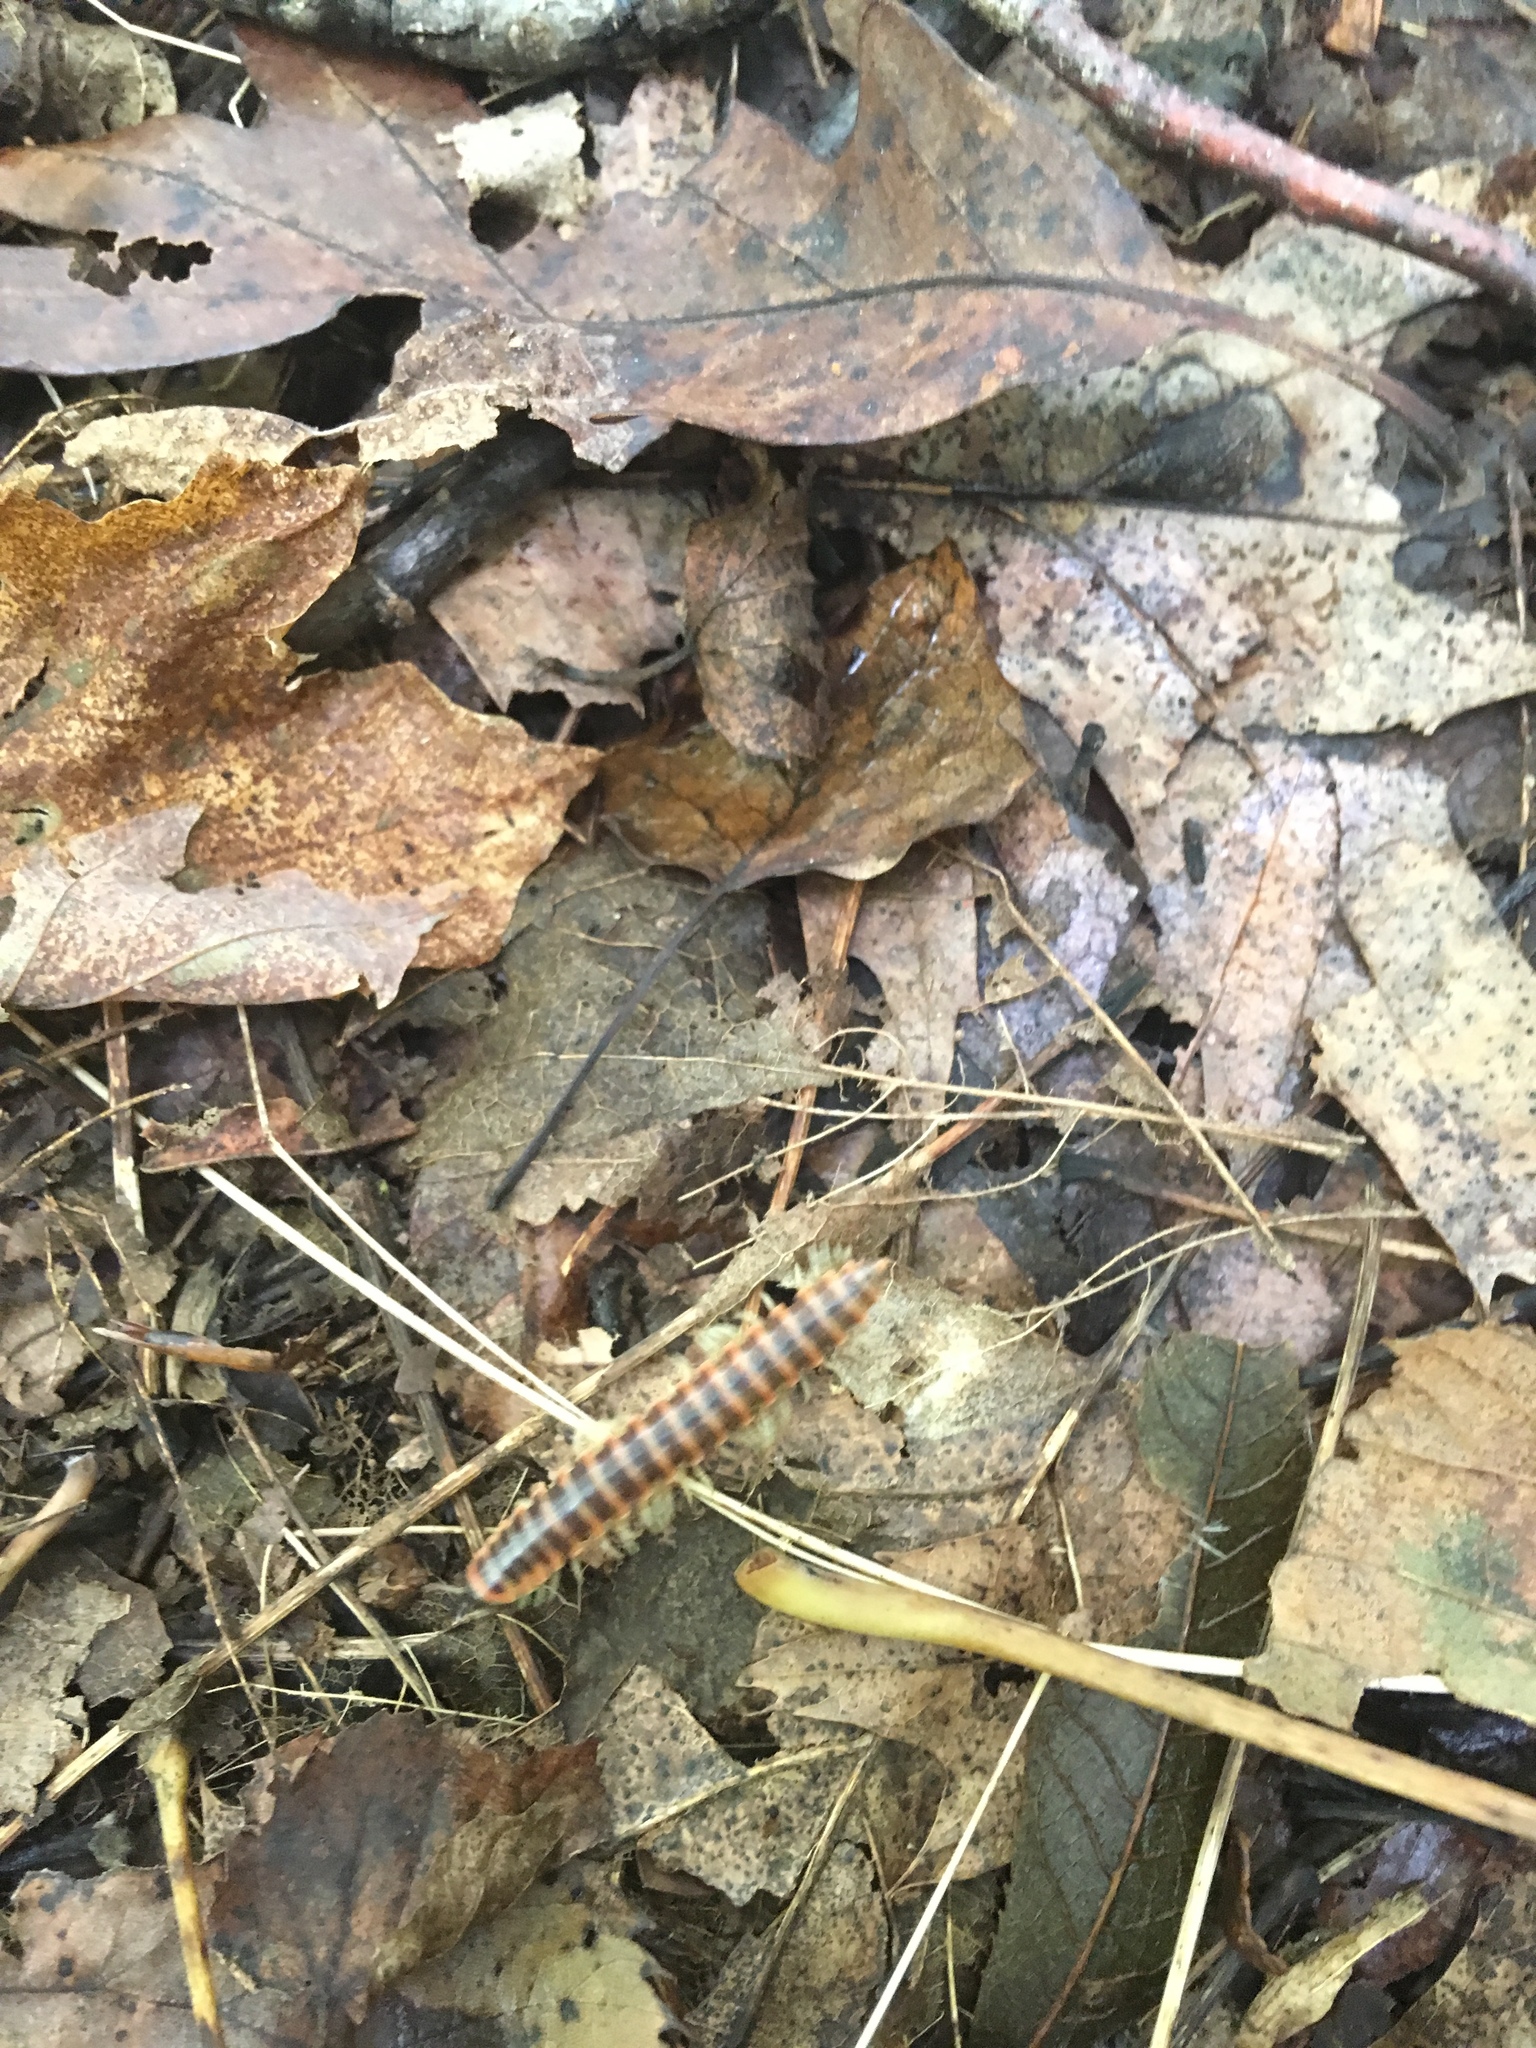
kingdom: Animalia
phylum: Arthropoda
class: Diplopoda
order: Polydesmida
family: Xystodesmidae
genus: Semionellus
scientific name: Semionellus placidus
